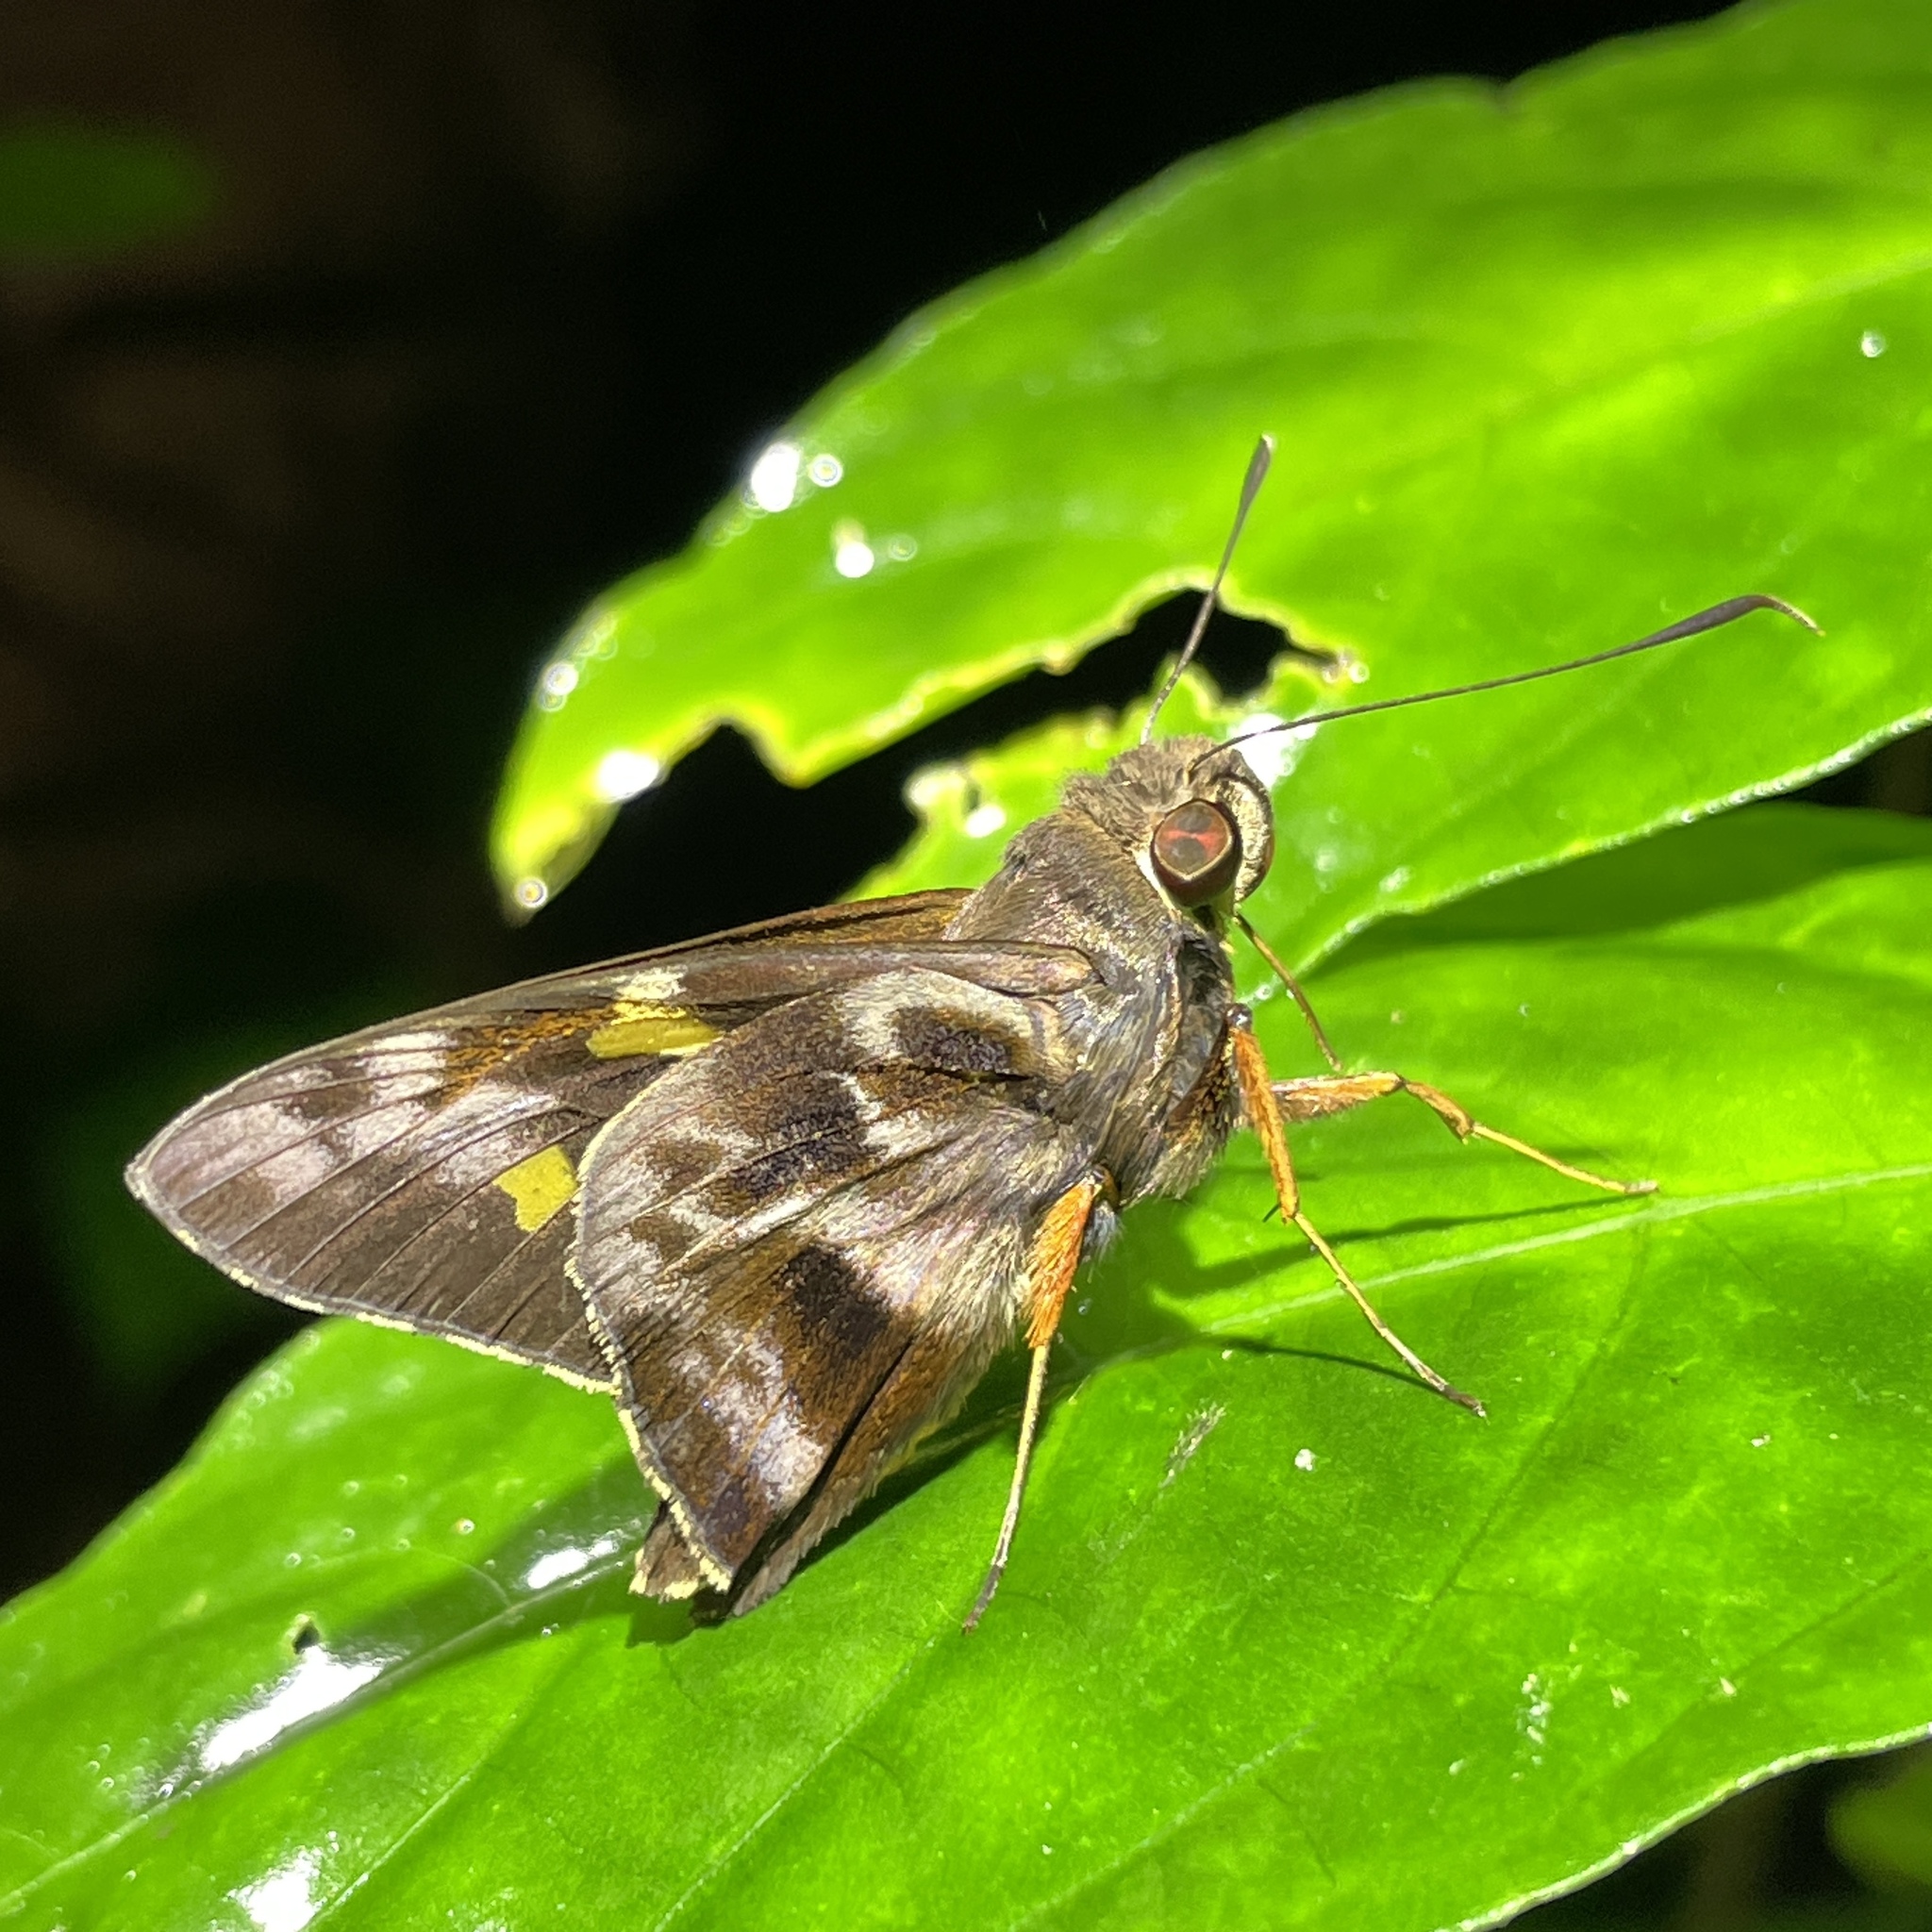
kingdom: Animalia
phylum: Arthropoda
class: Insecta
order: Lepidoptera
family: Hesperiidae
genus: Perichares
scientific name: Perichares philetes
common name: Green-backed ruby-eye
